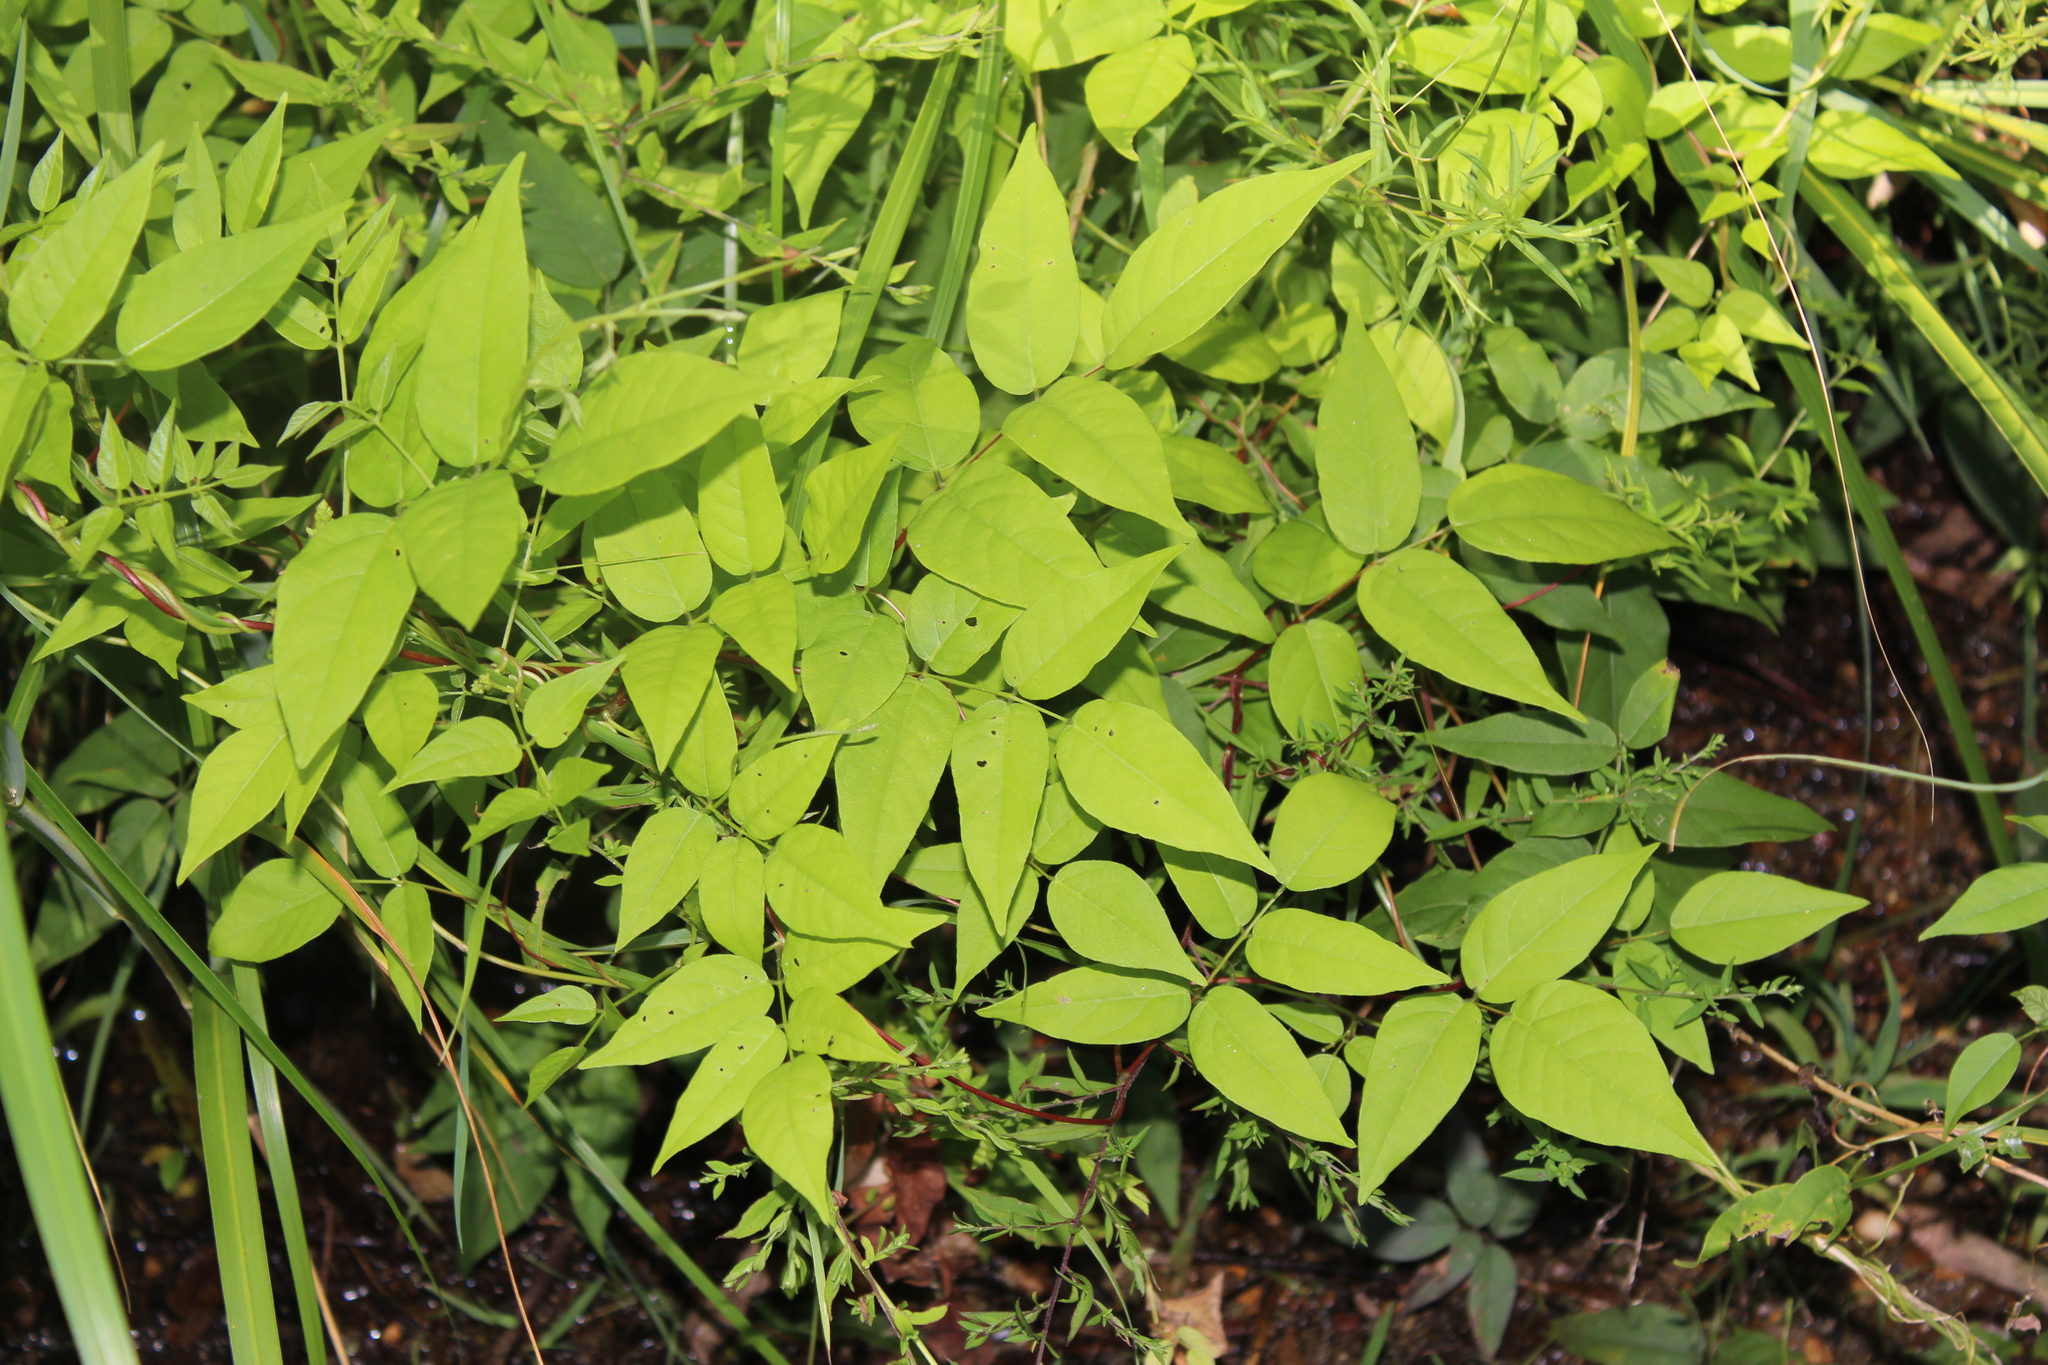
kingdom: Plantae
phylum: Tracheophyta
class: Magnoliopsida
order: Fabales
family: Fabaceae
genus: Apios
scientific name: Apios americana
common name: American potato-bean
